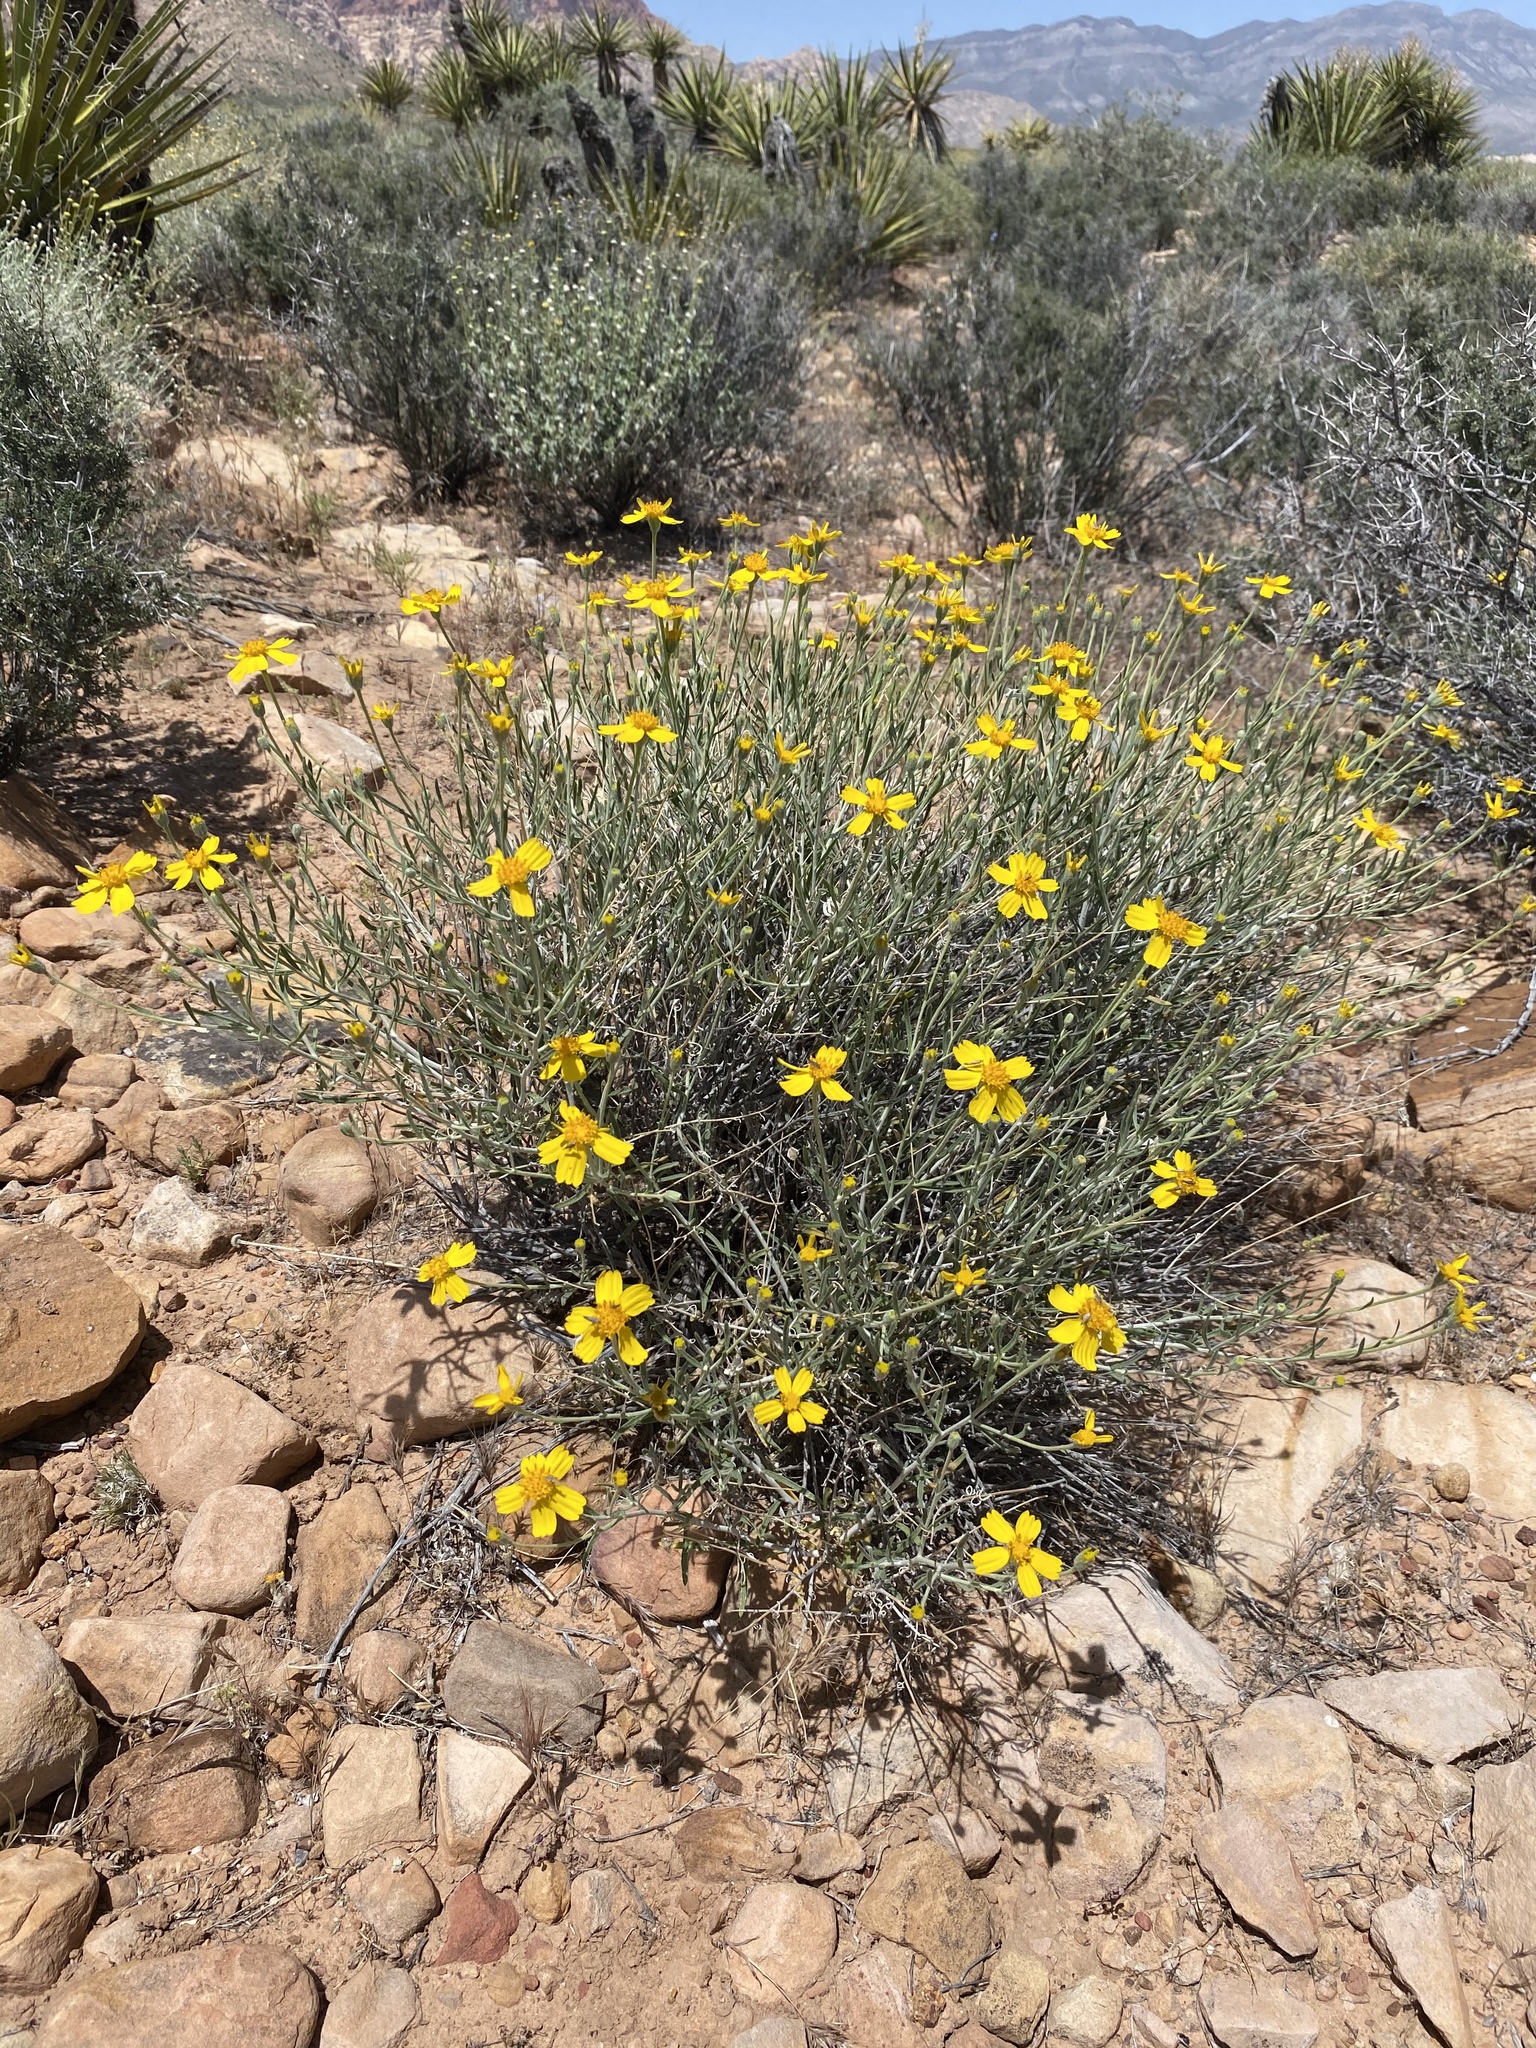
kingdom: Plantae
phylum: Tracheophyta
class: Magnoliopsida
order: Asterales
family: Asteraceae
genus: Psilostrophe
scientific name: Psilostrophe cooperi
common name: White-stem paper-flower
